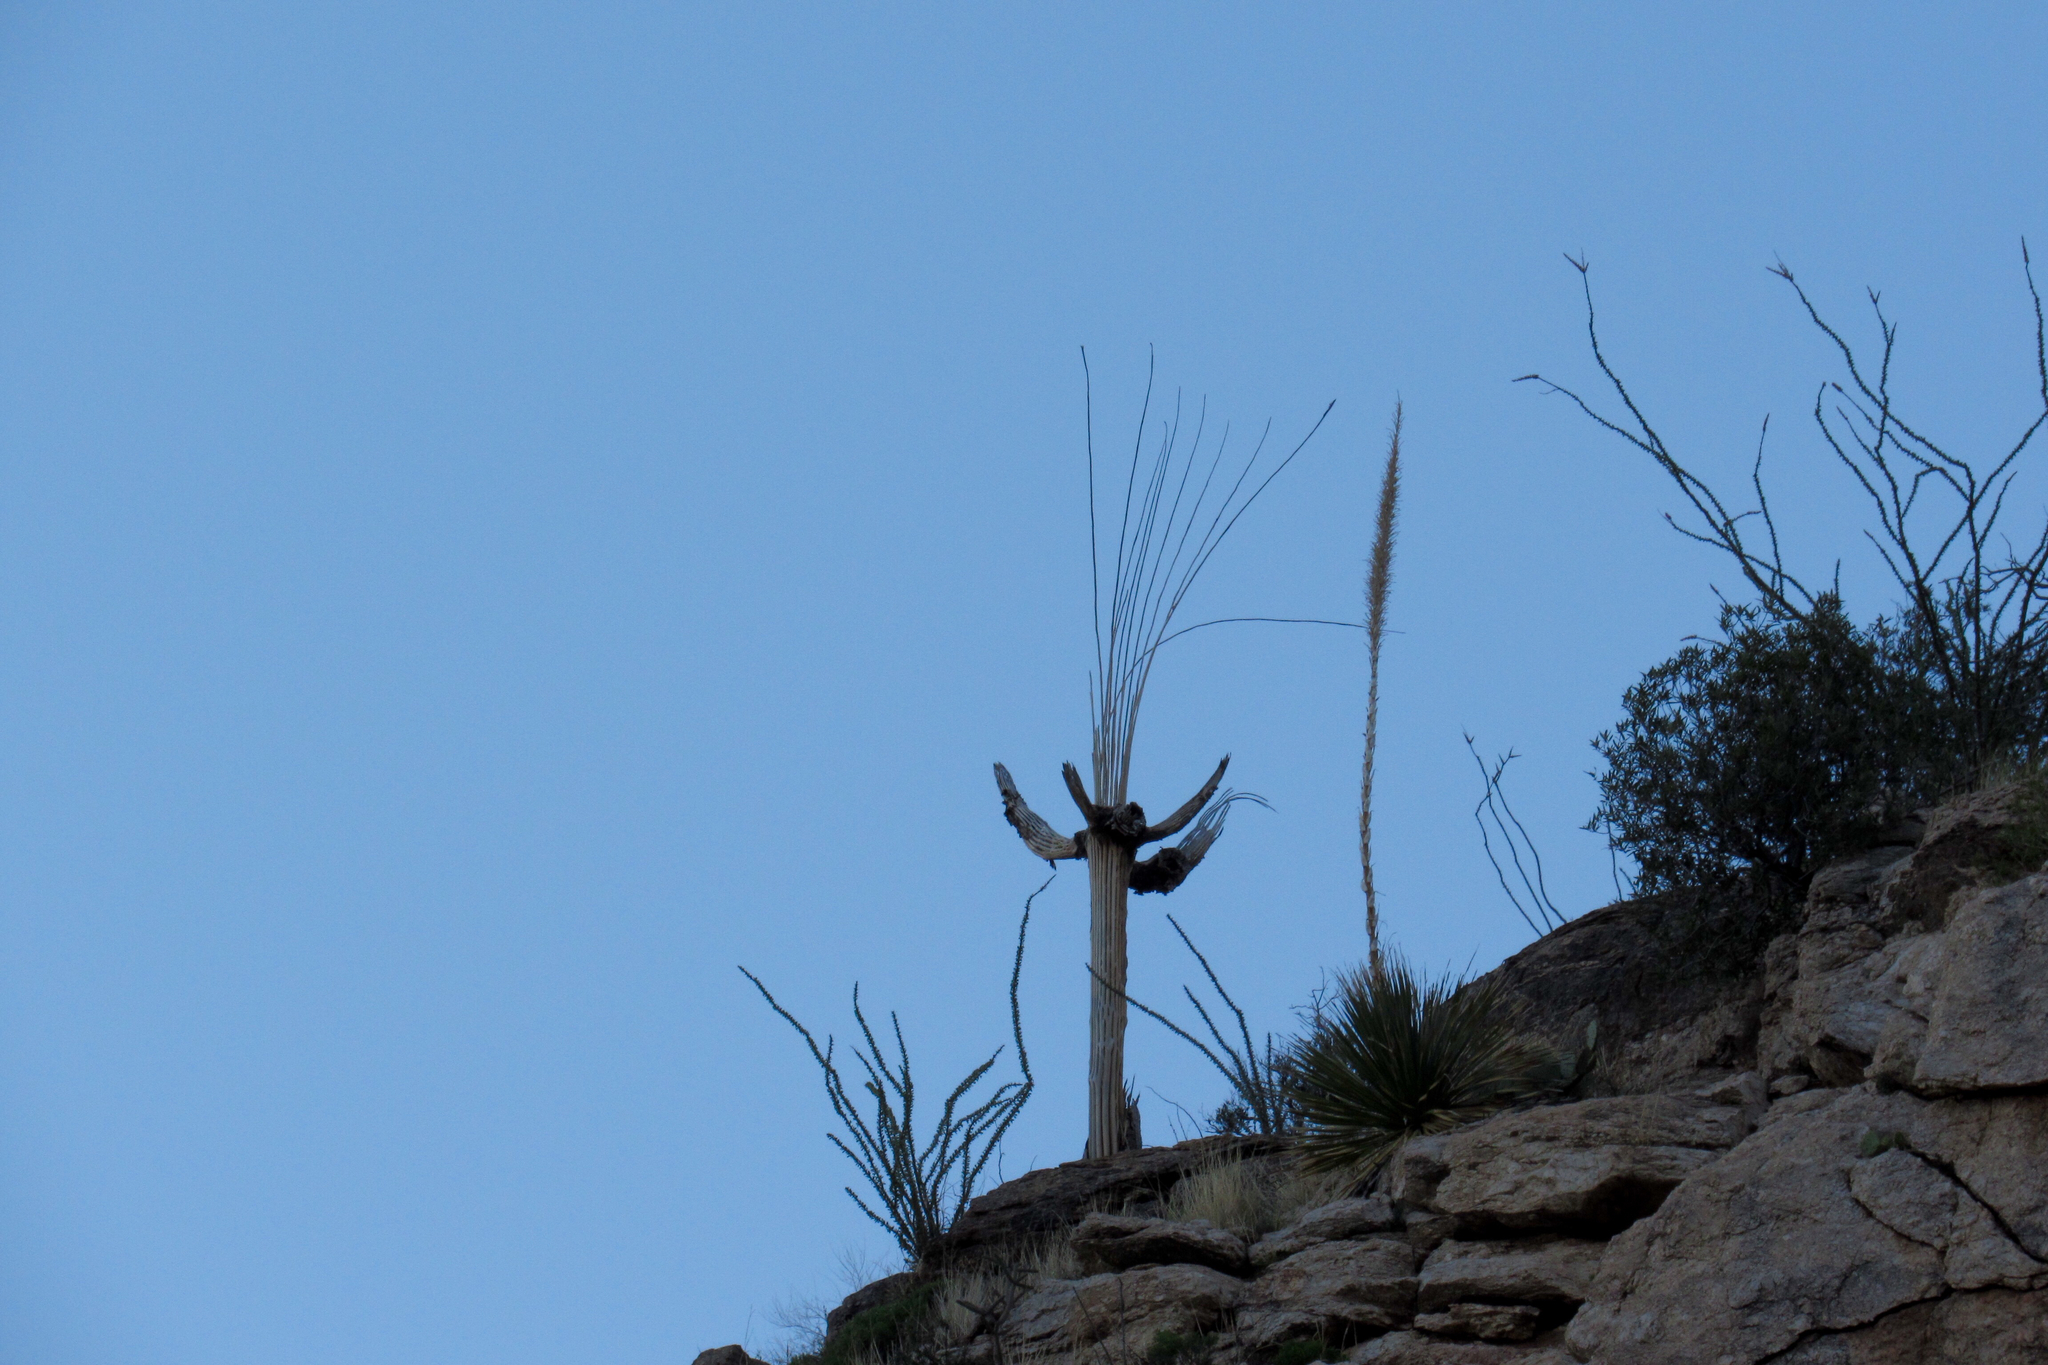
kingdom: Plantae
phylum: Tracheophyta
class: Magnoliopsida
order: Caryophyllales
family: Cactaceae
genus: Carnegiea
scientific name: Carnegiea gigantea
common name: Saguaro
